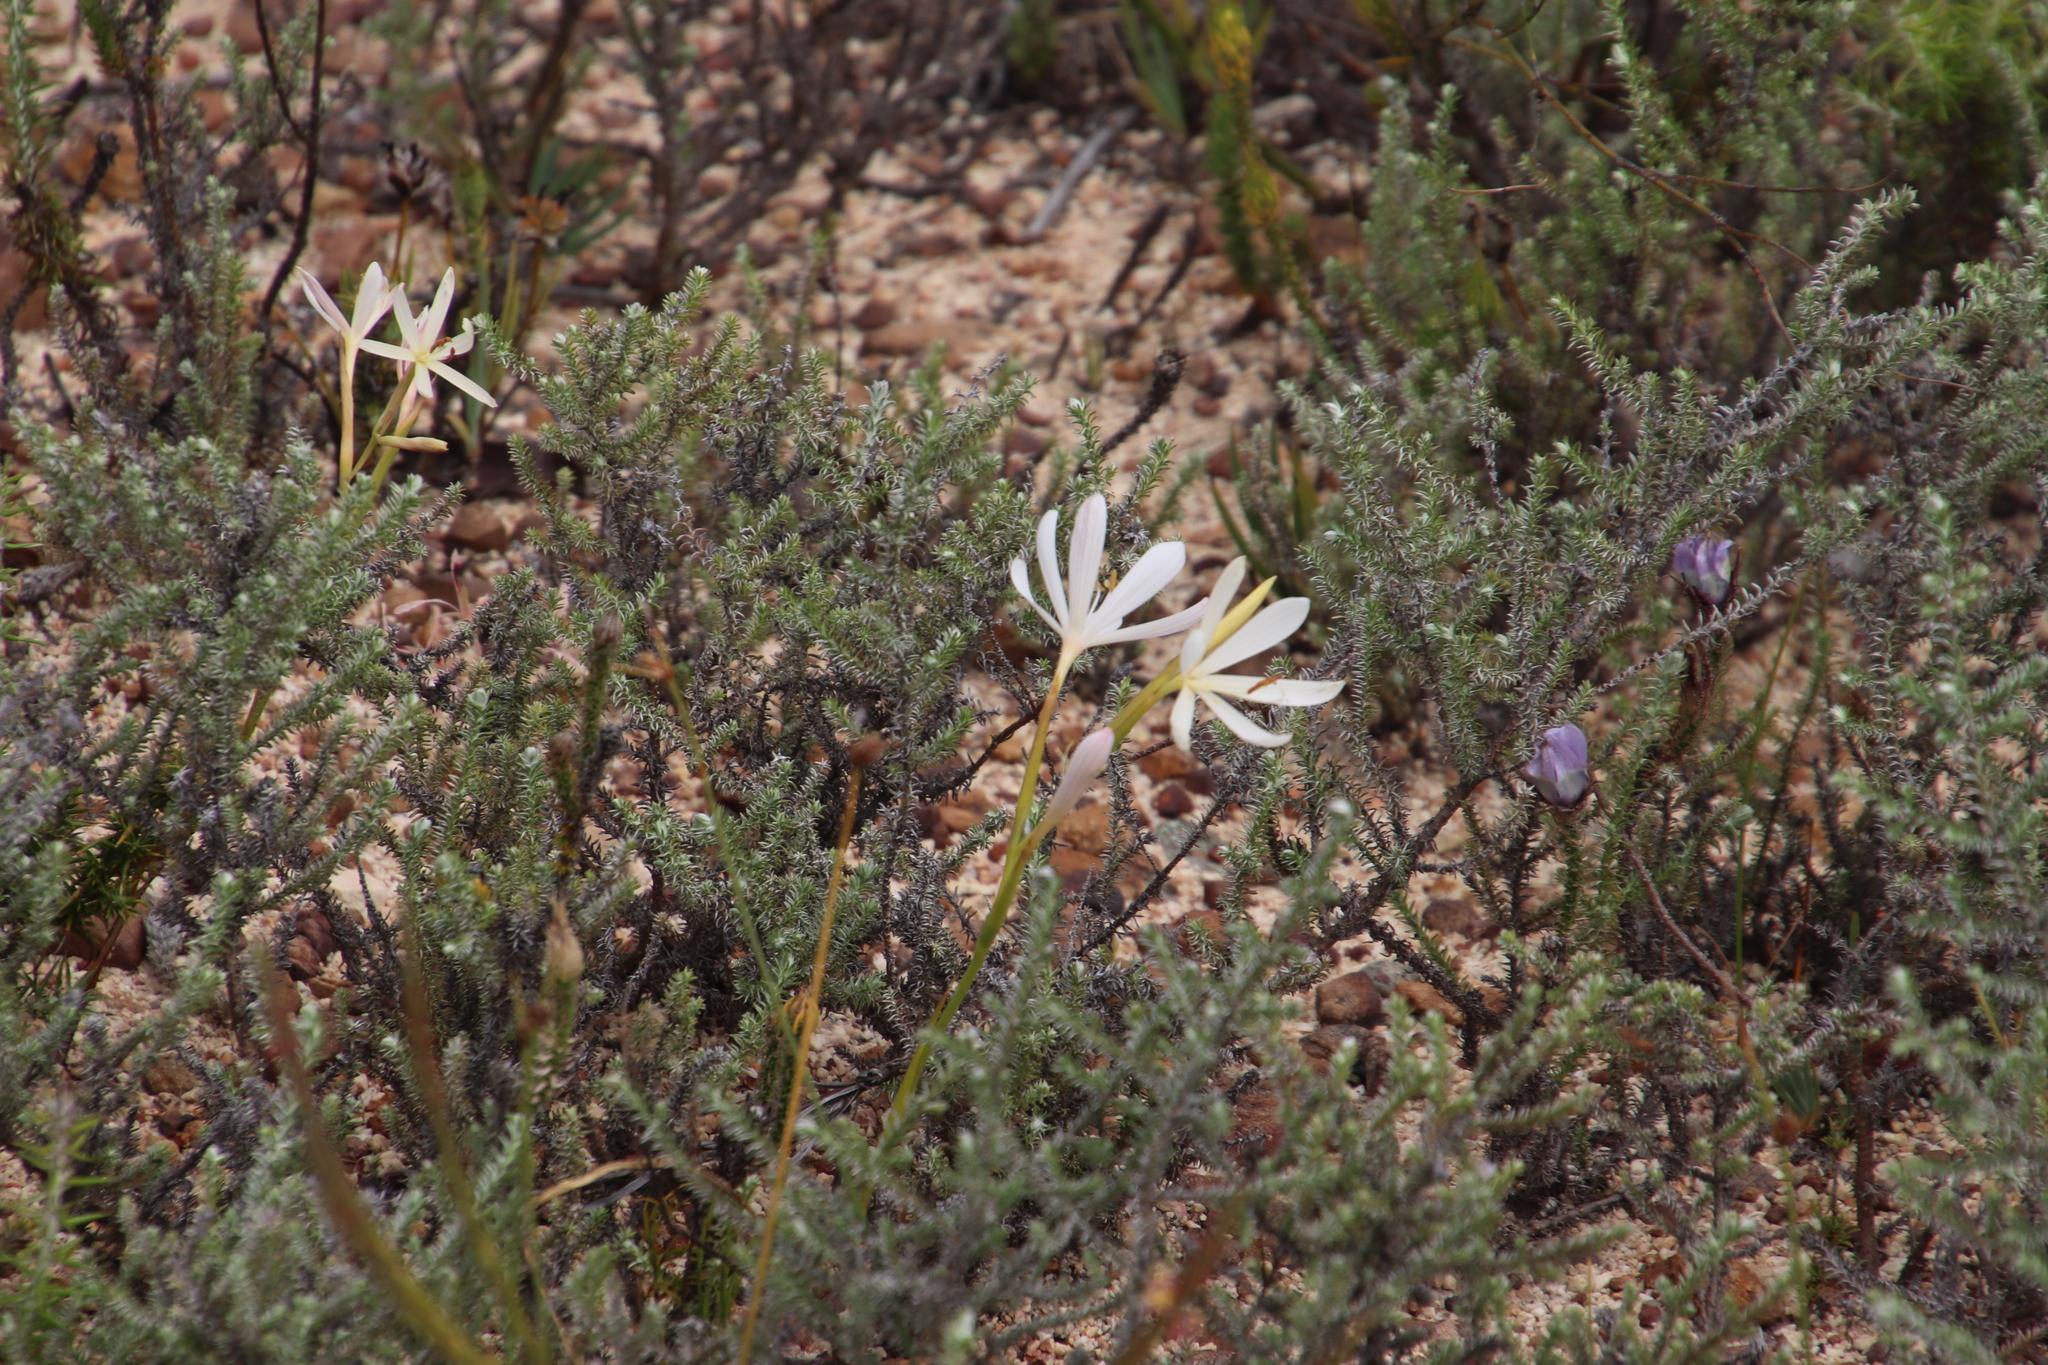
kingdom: Plantae
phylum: Tracheophyta
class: Liliopsida
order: Asparagales
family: Iridaceae
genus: Geissorhiza
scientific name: Geissorhiza exscapa
